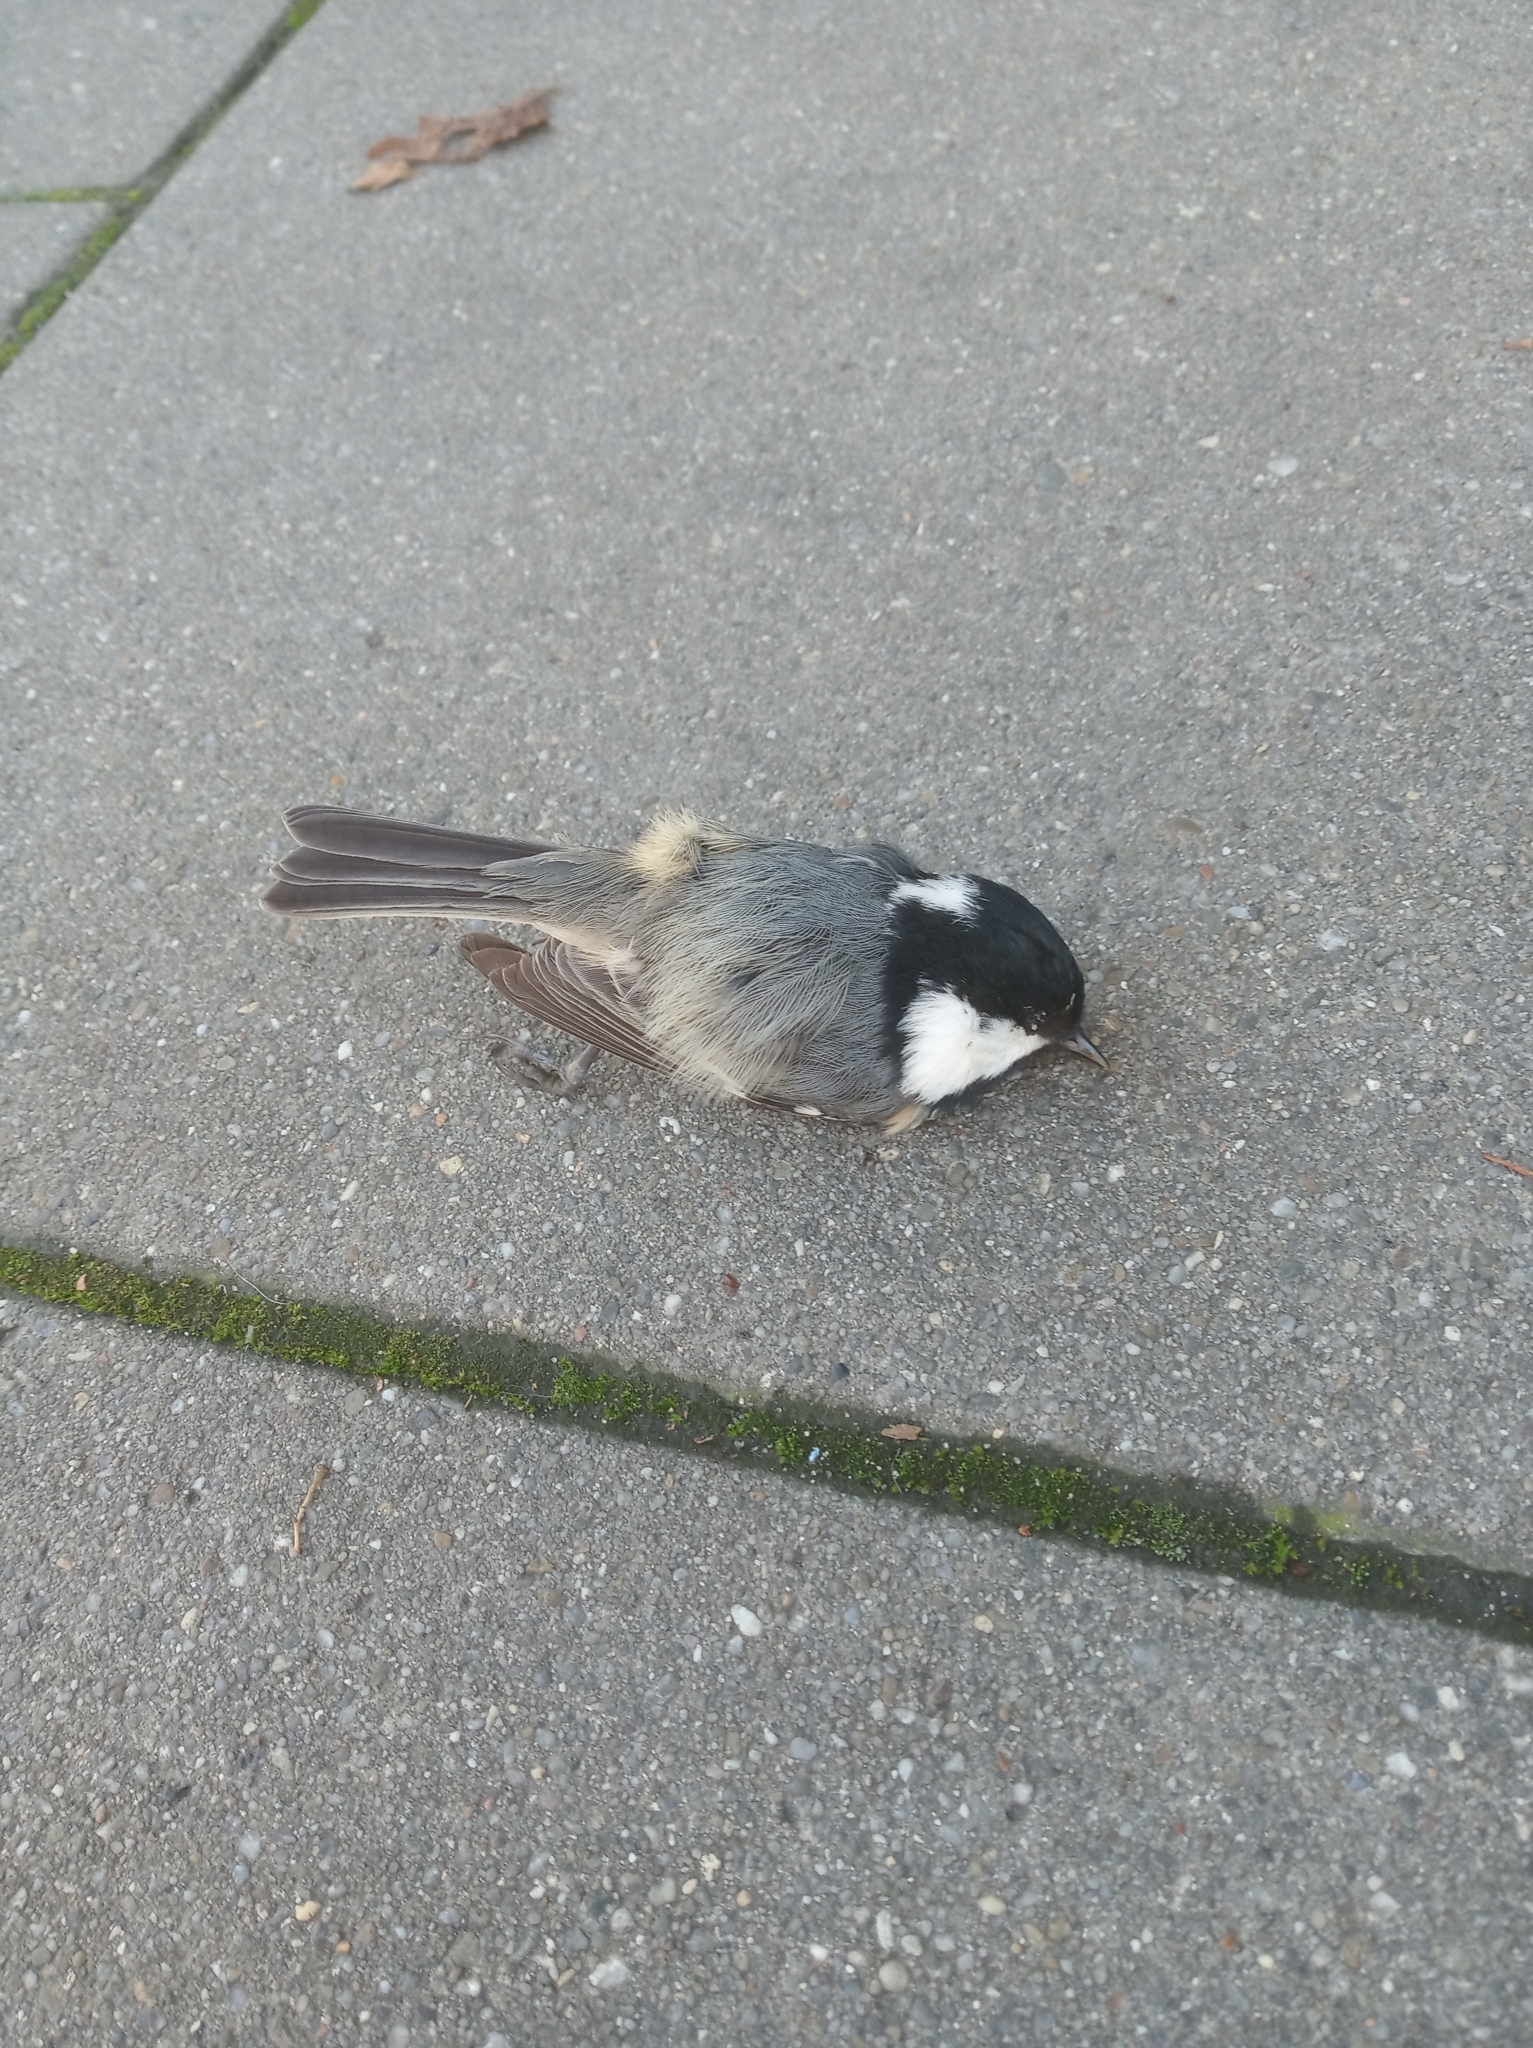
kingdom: Animalia
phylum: Chordata
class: Aves
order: Passeriformes
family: Paridae
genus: Periparus
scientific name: Periparus ater
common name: Coal tit
